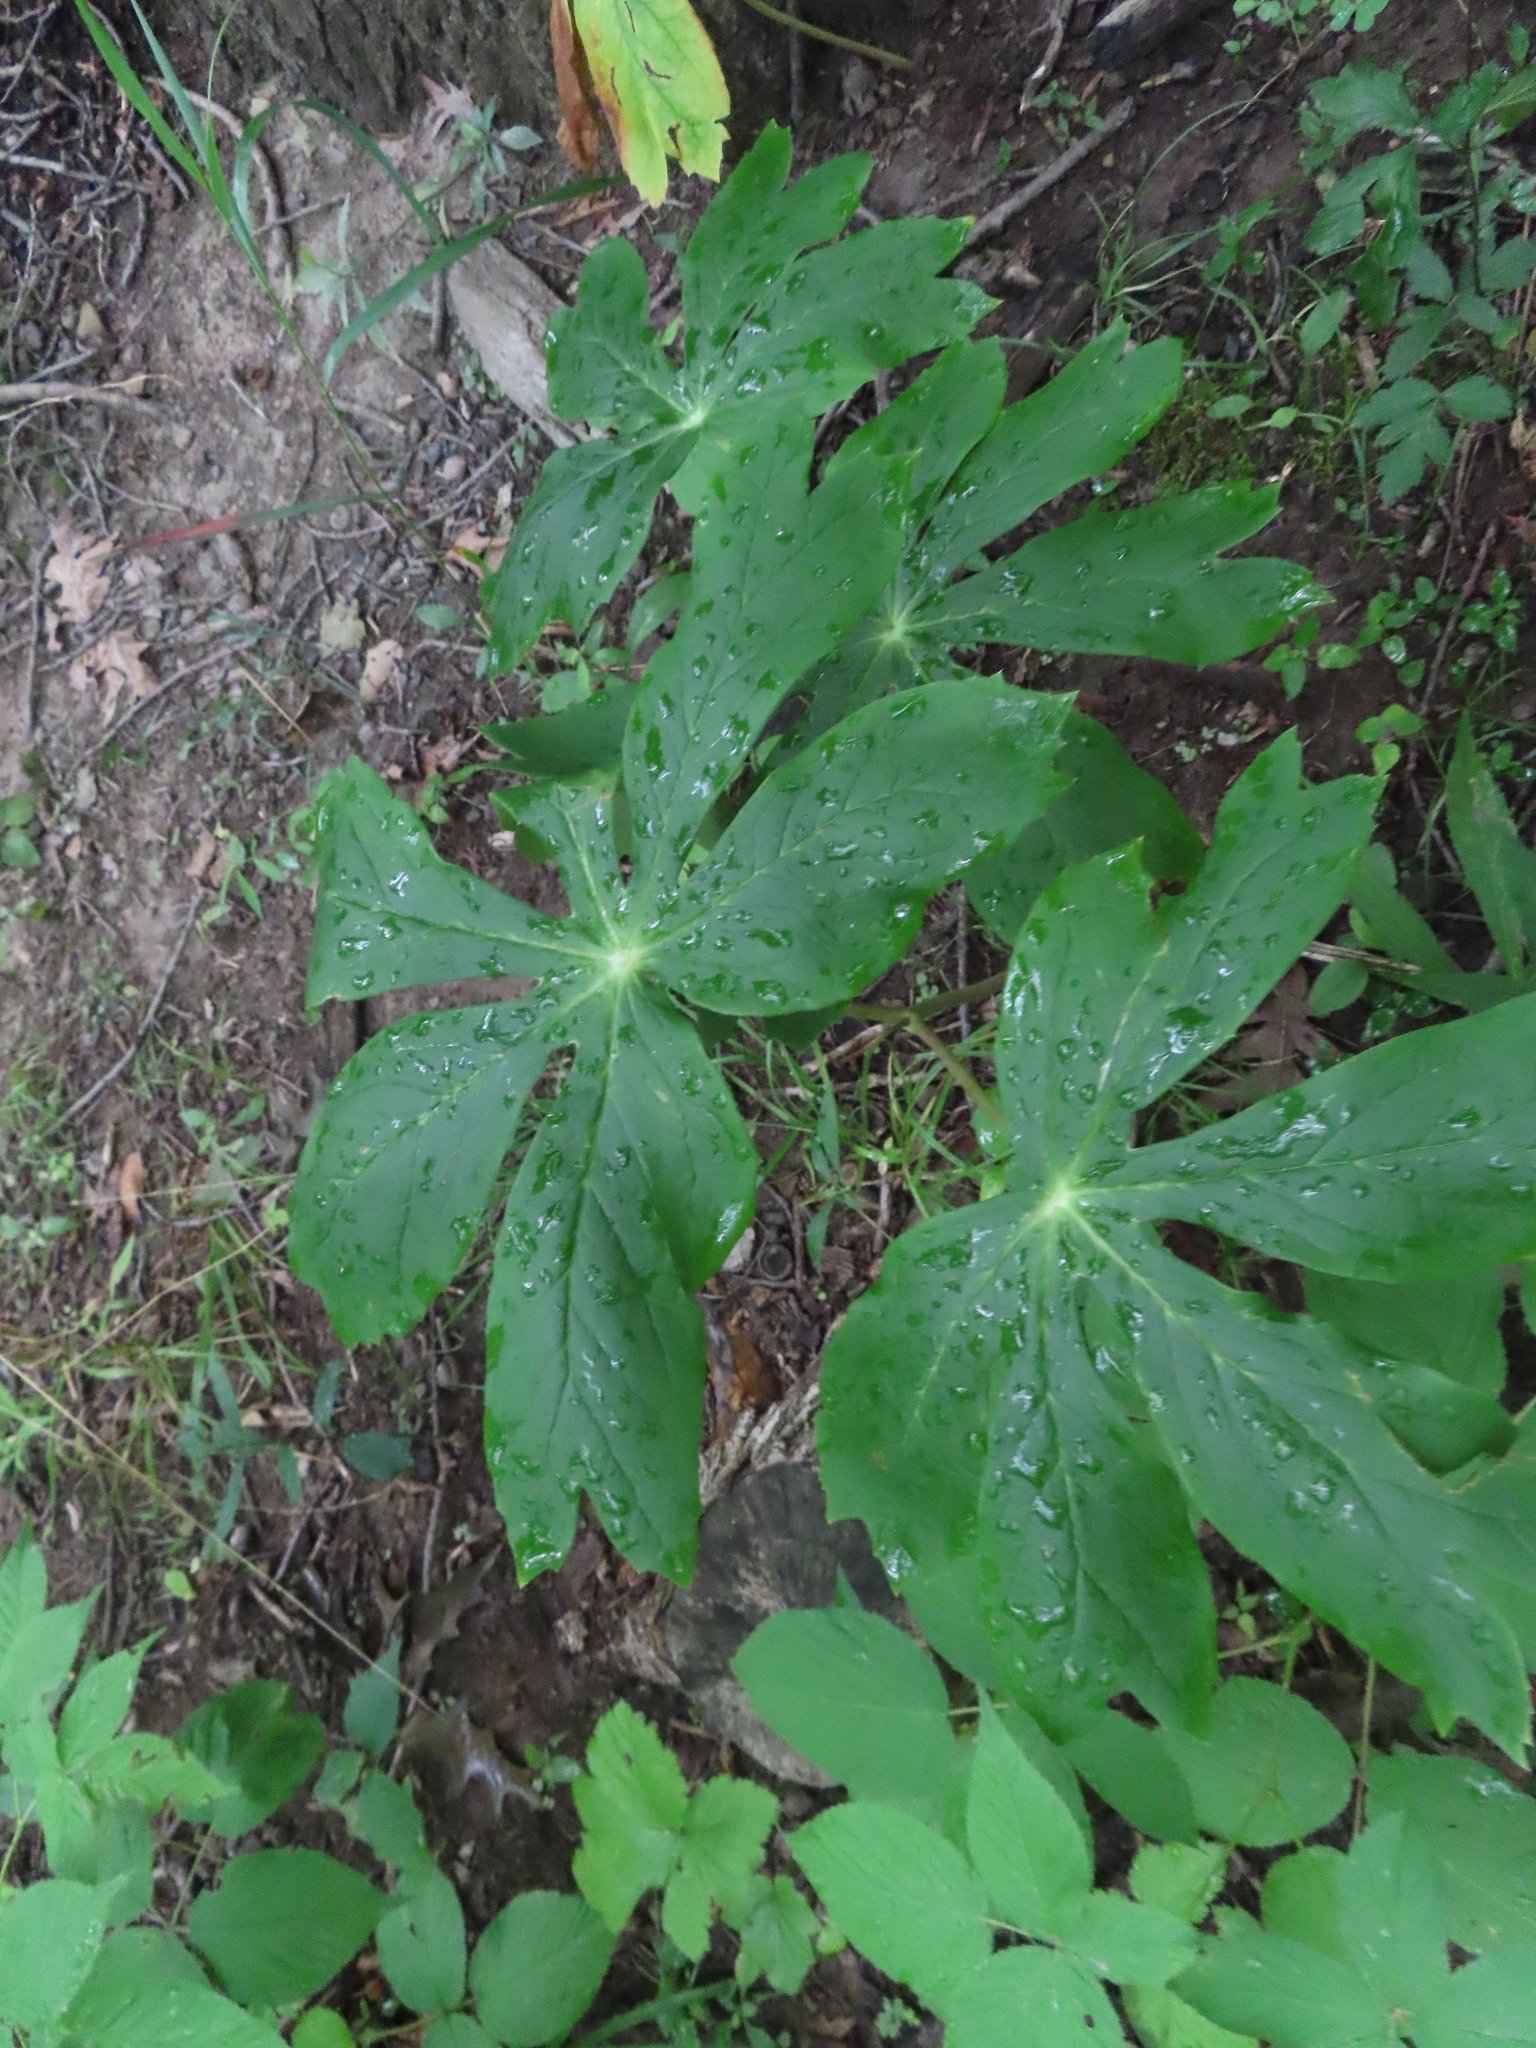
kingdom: Plantae
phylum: Tracheophyta
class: Magnoliopsida
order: Ranunculales
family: Berberidaceae
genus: Podophyllum
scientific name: Podophyllum peltatum
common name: Wild mandrake
